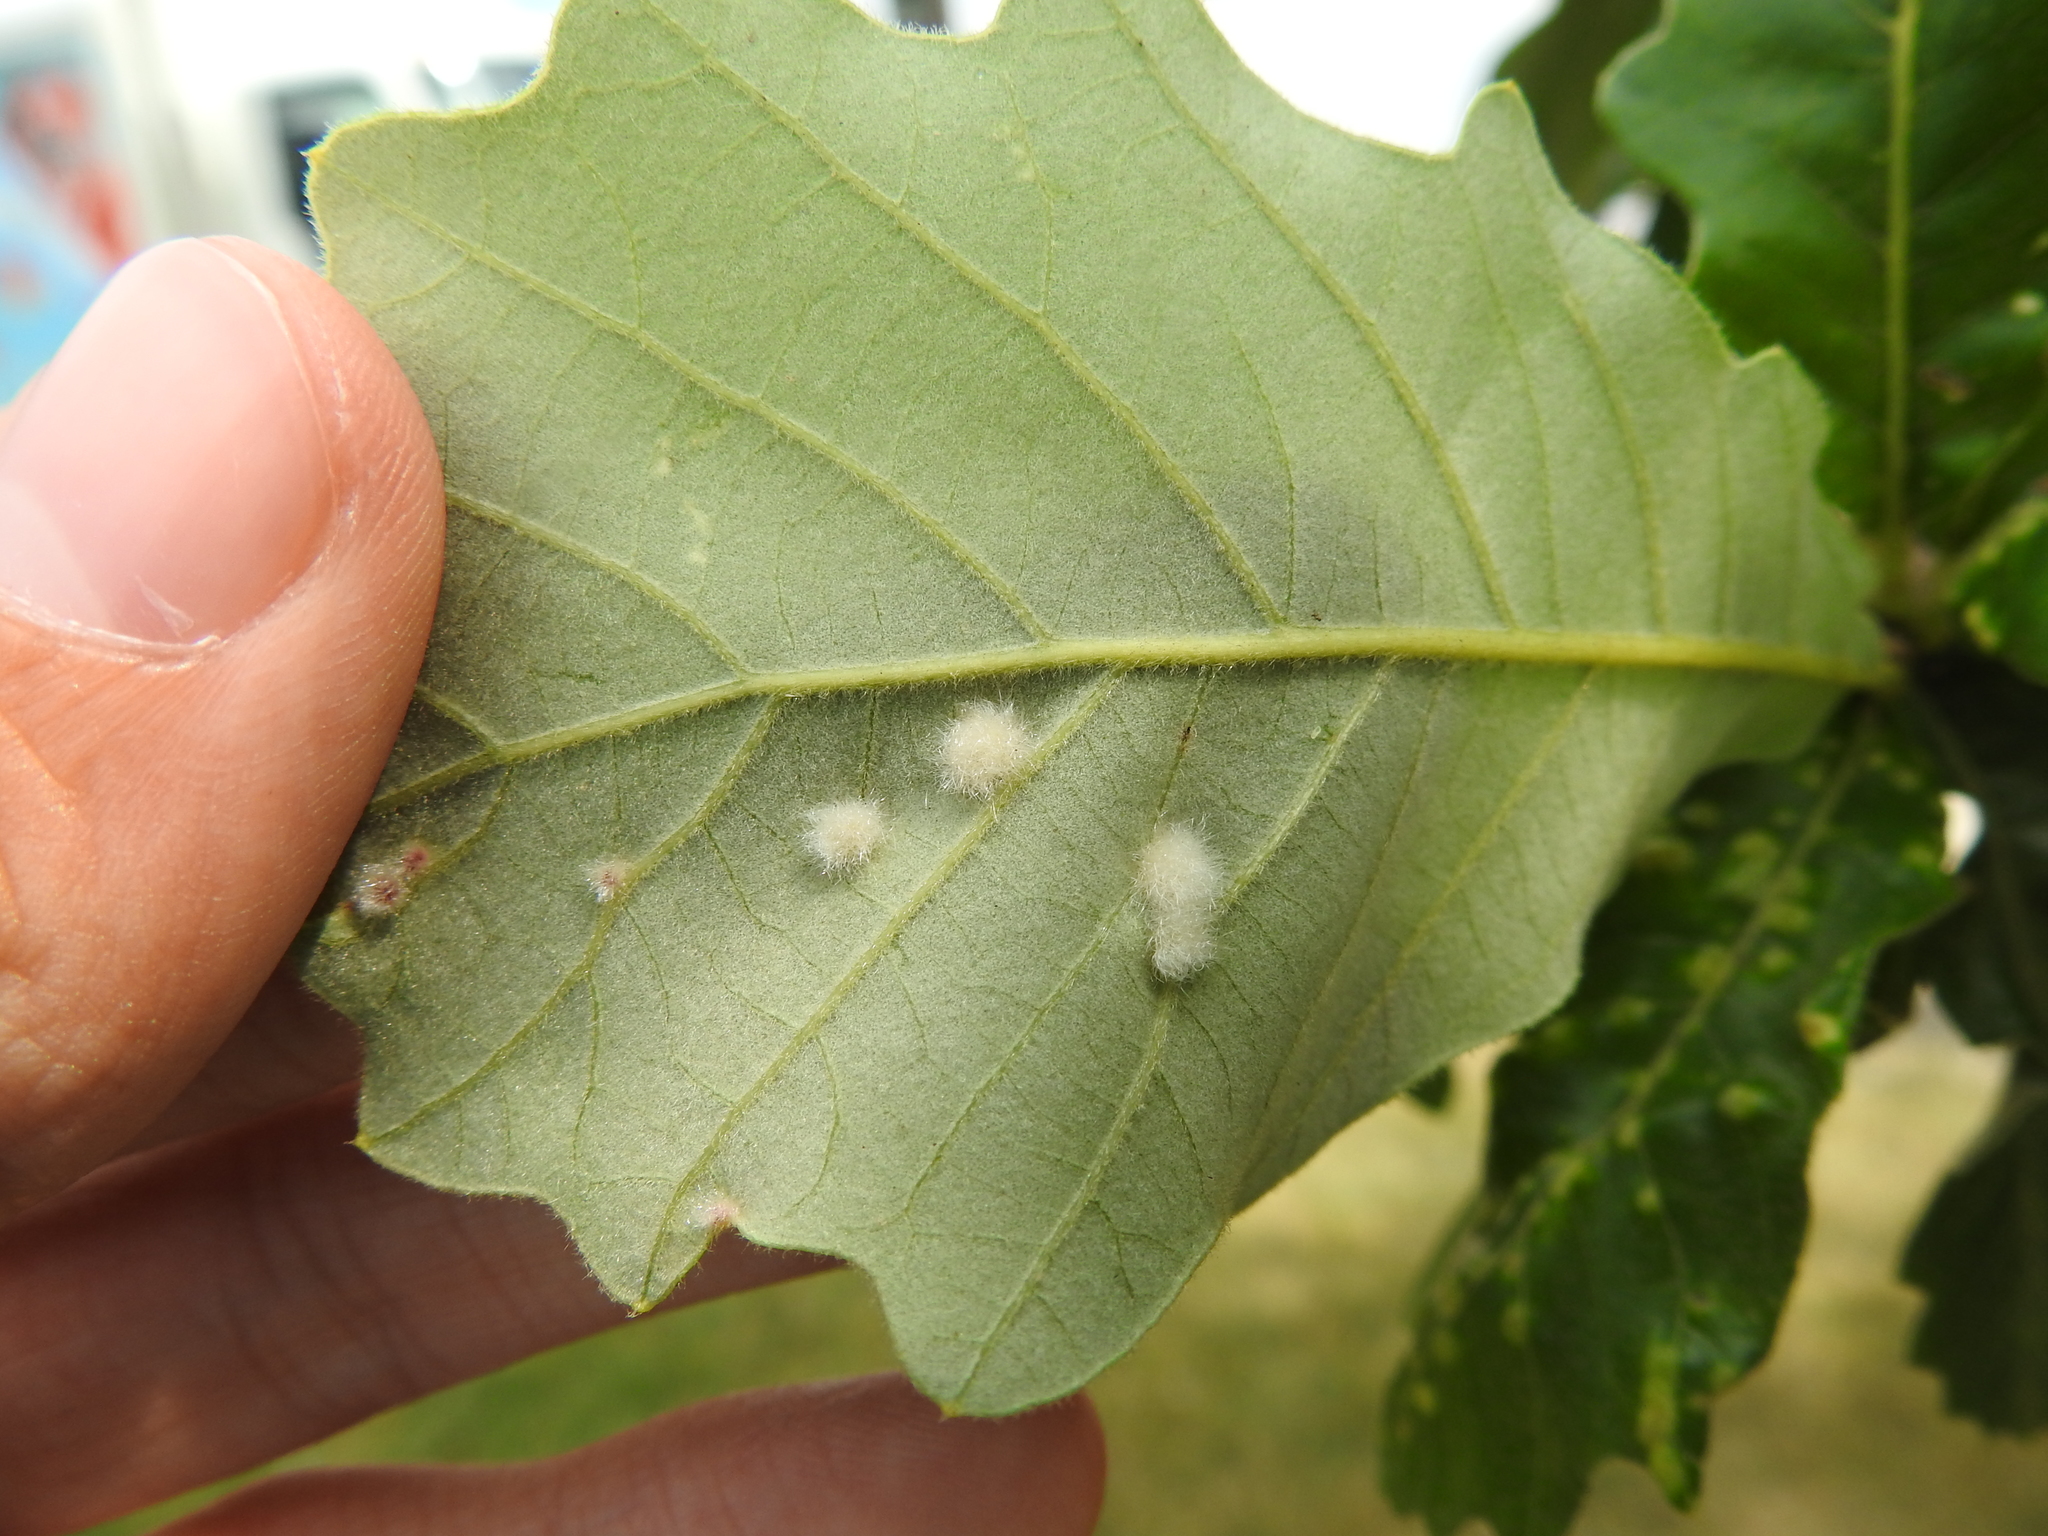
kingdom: Animalia
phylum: Arthropoda
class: Insecta
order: Hymenoptera
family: Cynipidae
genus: Neuroterus
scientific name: Neuroterus quercusverrucarum
